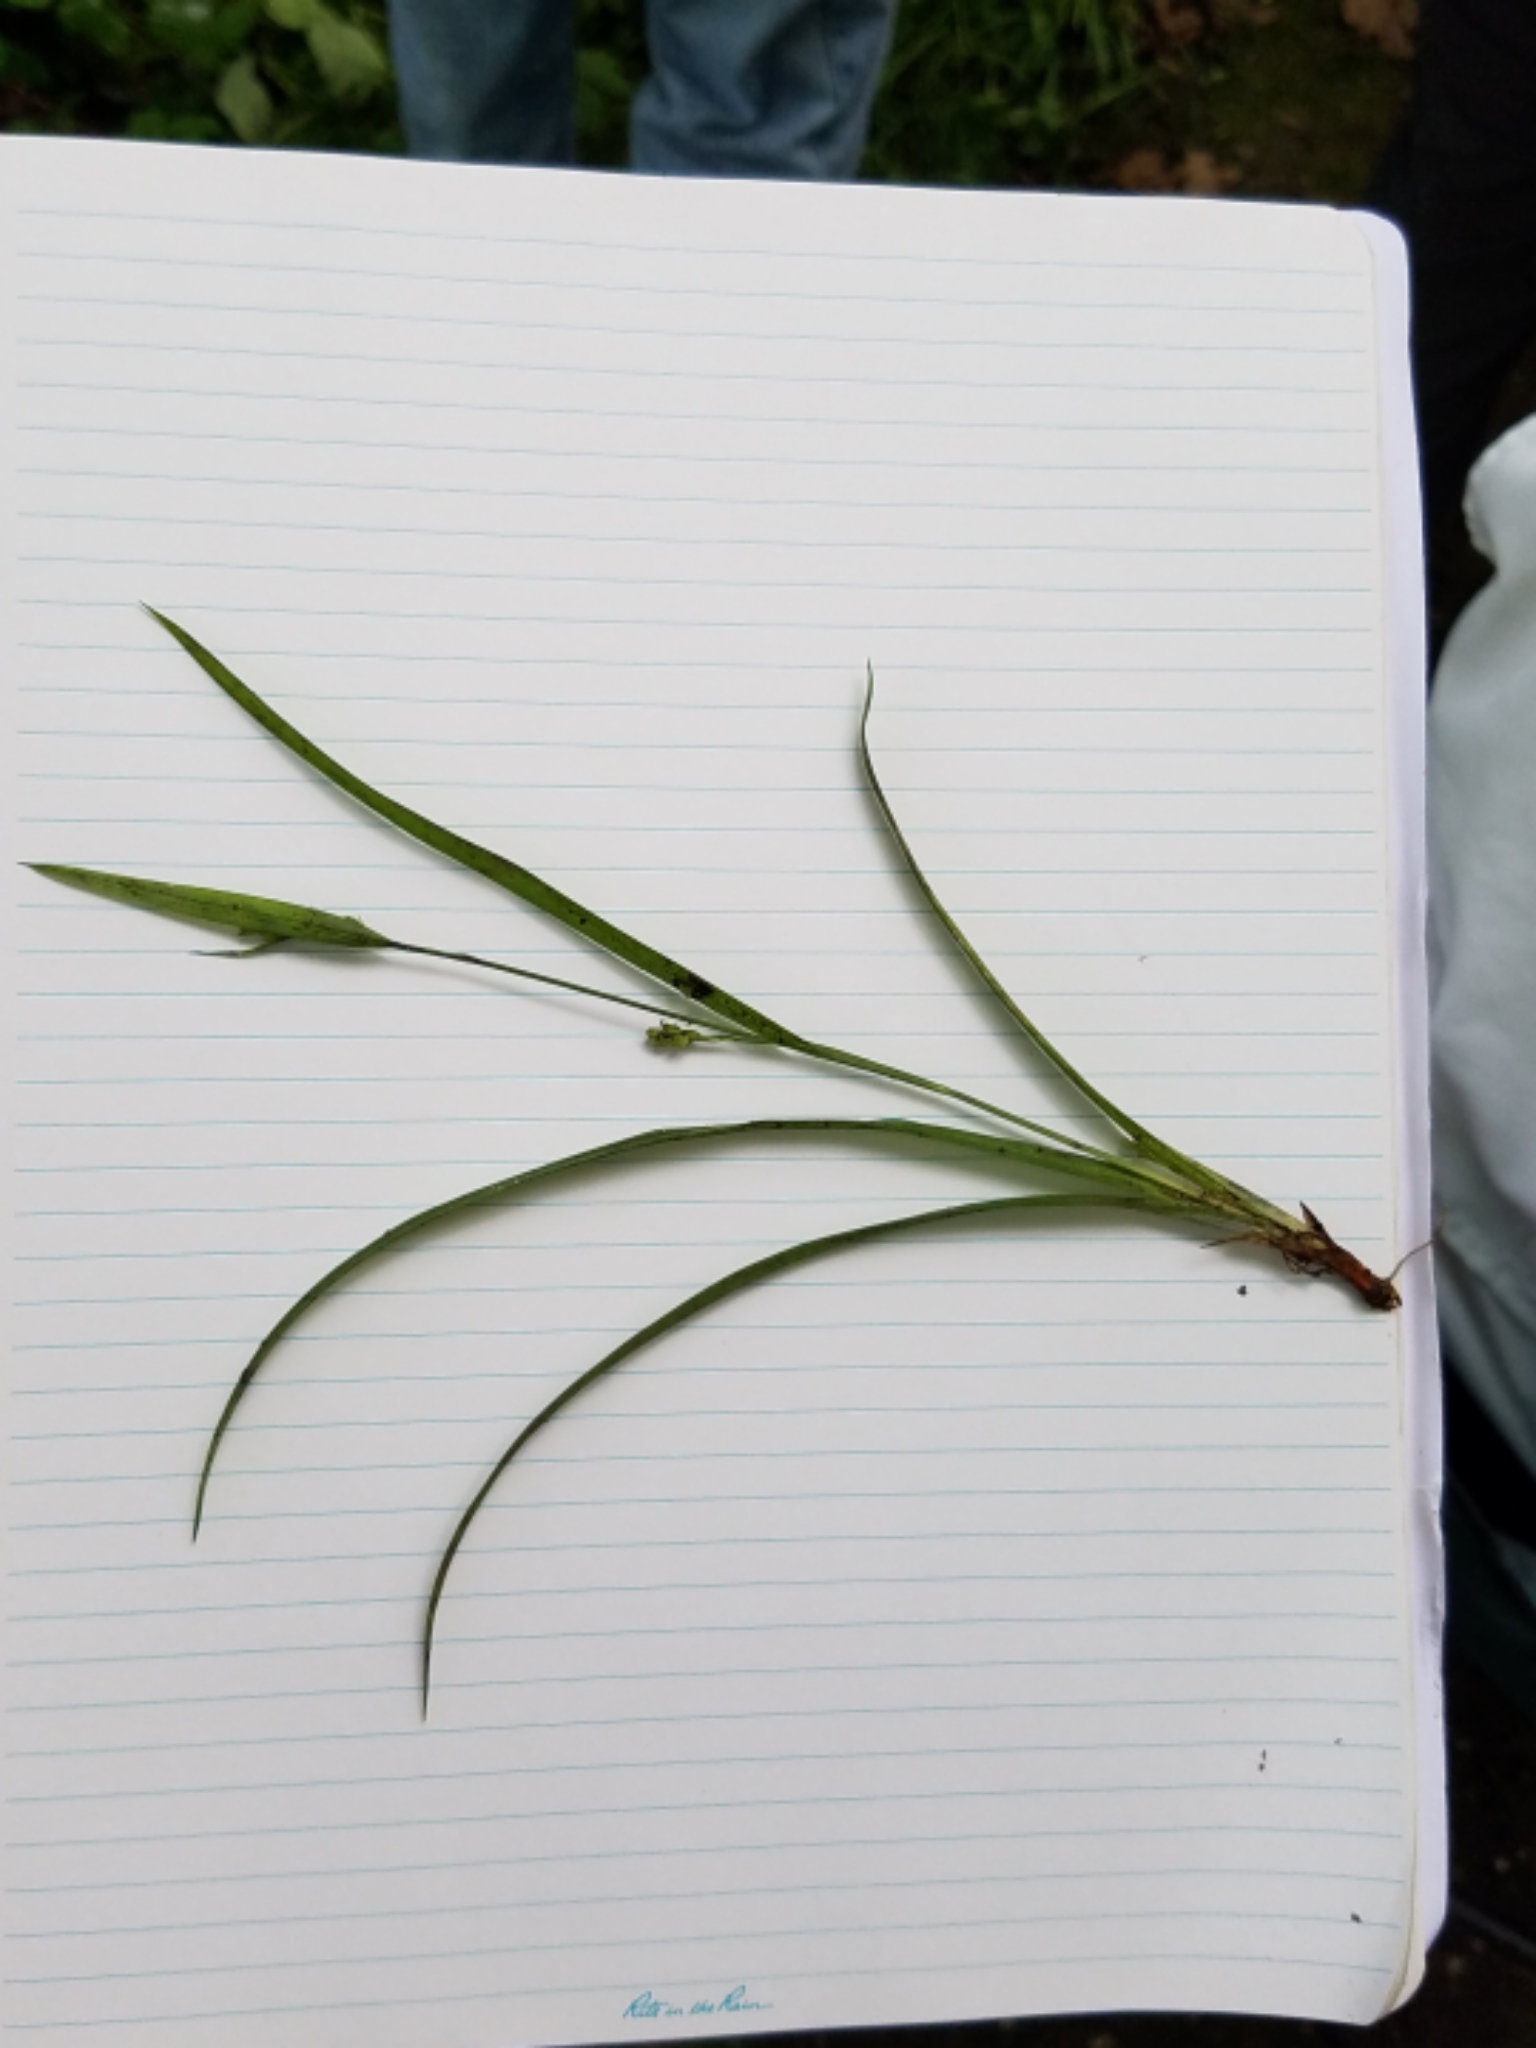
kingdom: Plantae
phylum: Tracheophyta
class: Liliopsida
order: Poales
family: Cyperaceae
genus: Carex
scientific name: Carex laxiculmis
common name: Spreading sedge
